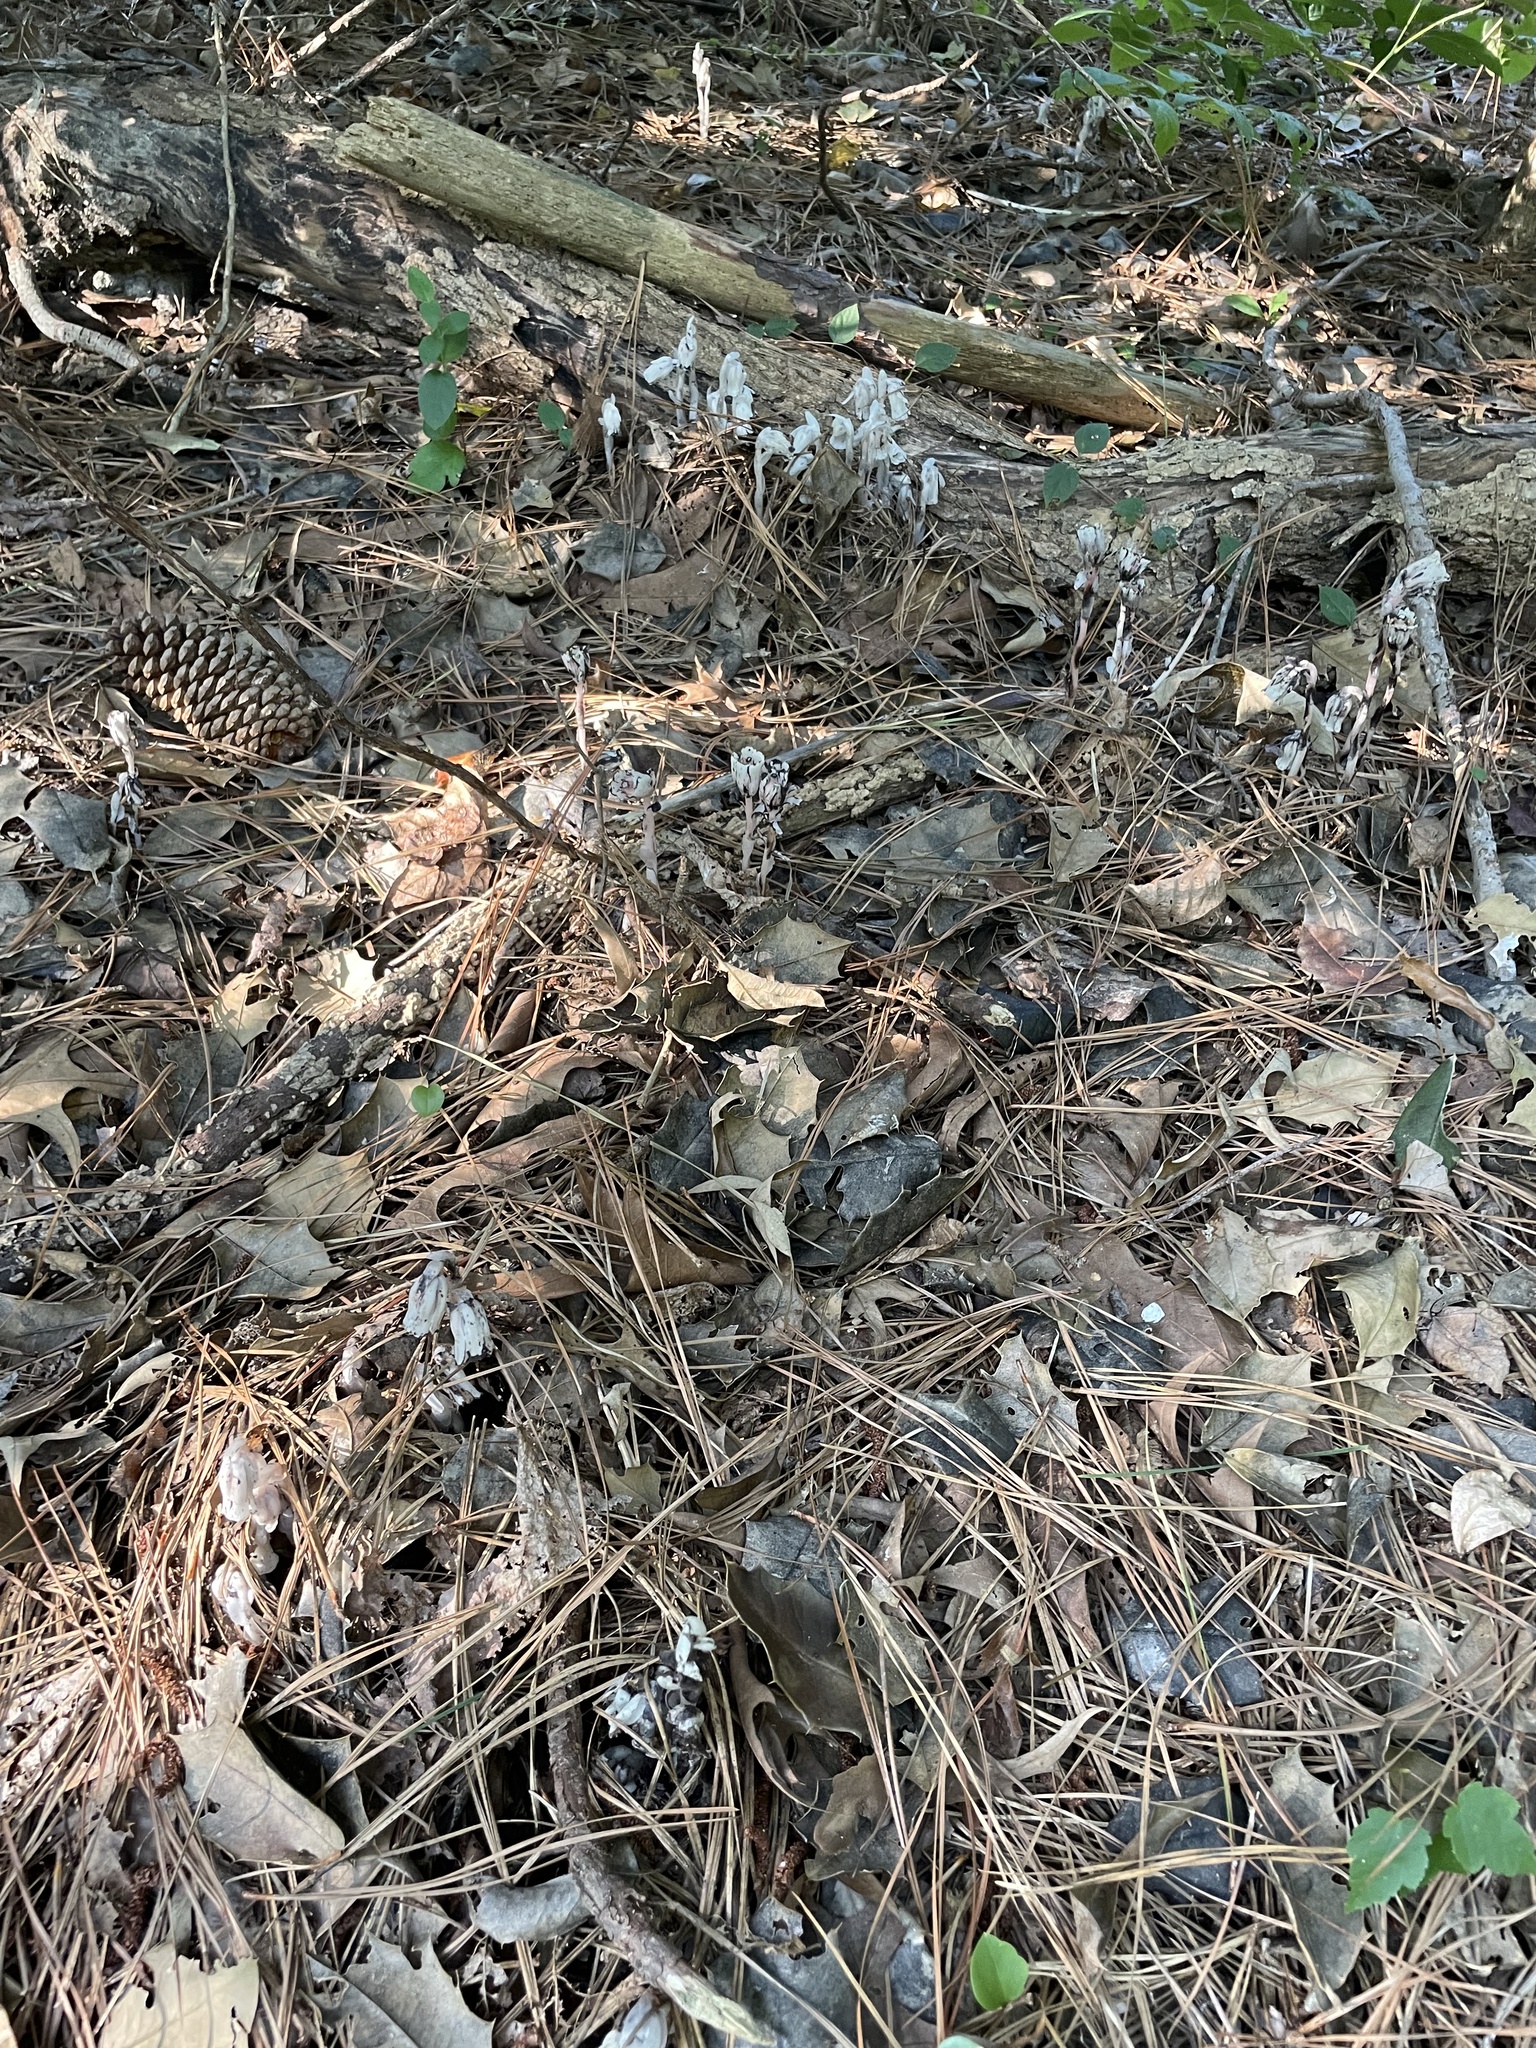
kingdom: Plantae
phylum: Tracheophyta
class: Magnoliopsida
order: Ericales
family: Ericaceae
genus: Monotropa
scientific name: Monotropa uniflora
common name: Convulsion root
